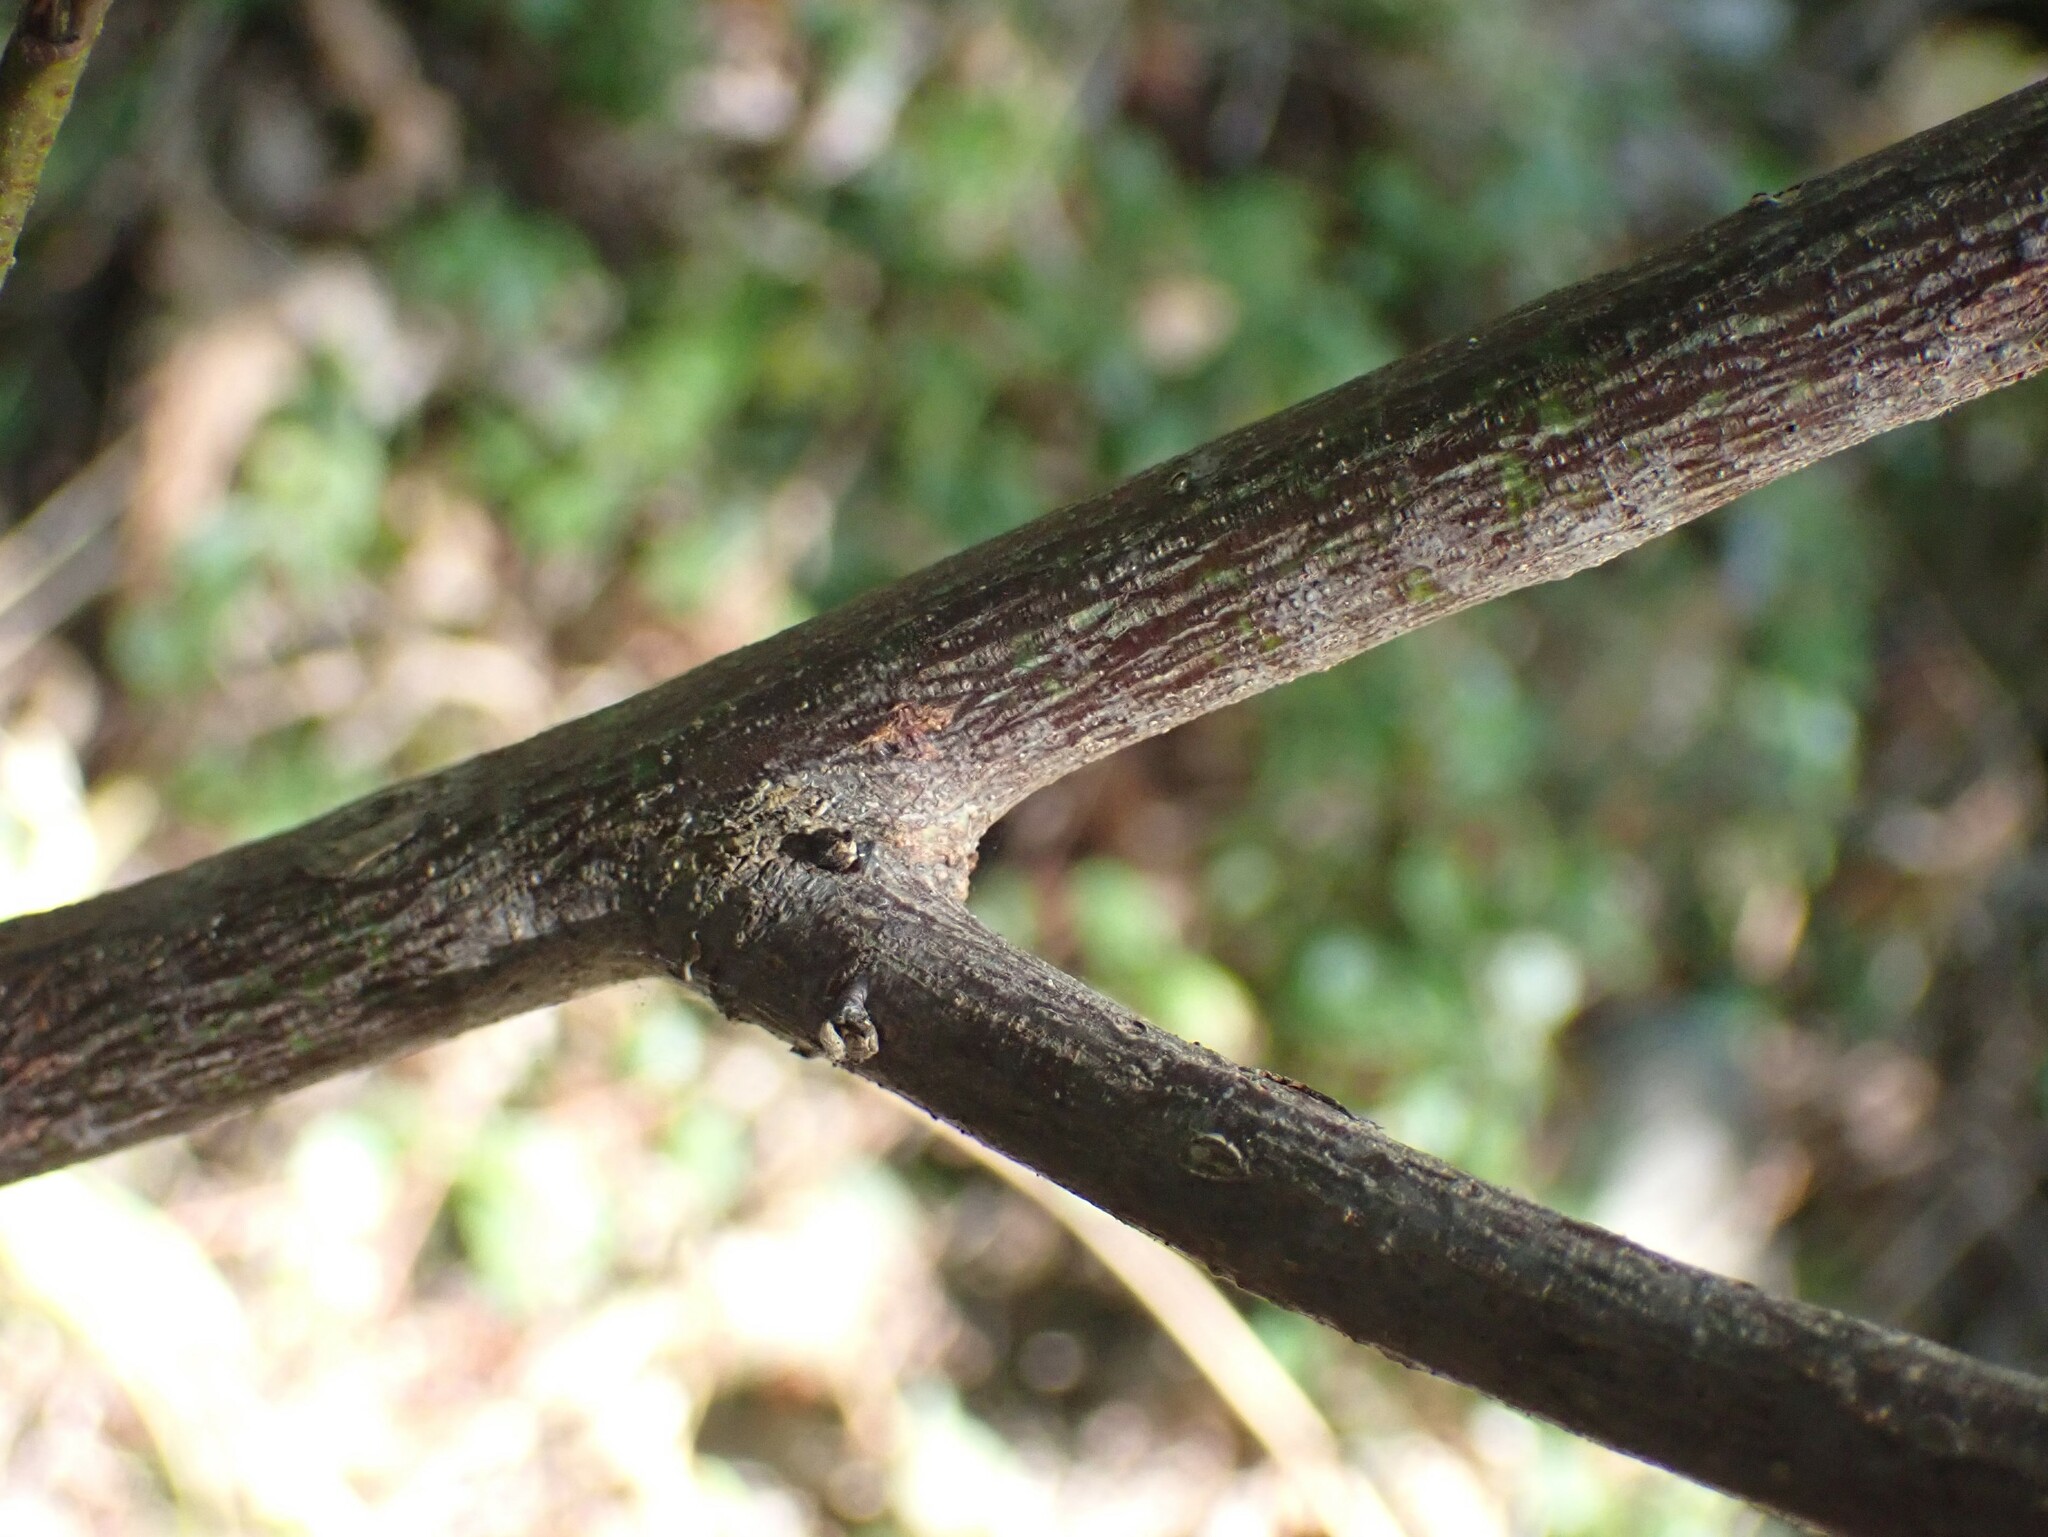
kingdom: Plantae
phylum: Tracheophyta
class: Magnoliopsida
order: Rosales
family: Rhamnaceae
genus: Ceanothus
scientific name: Ceanothus sanguineus
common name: Teatree
